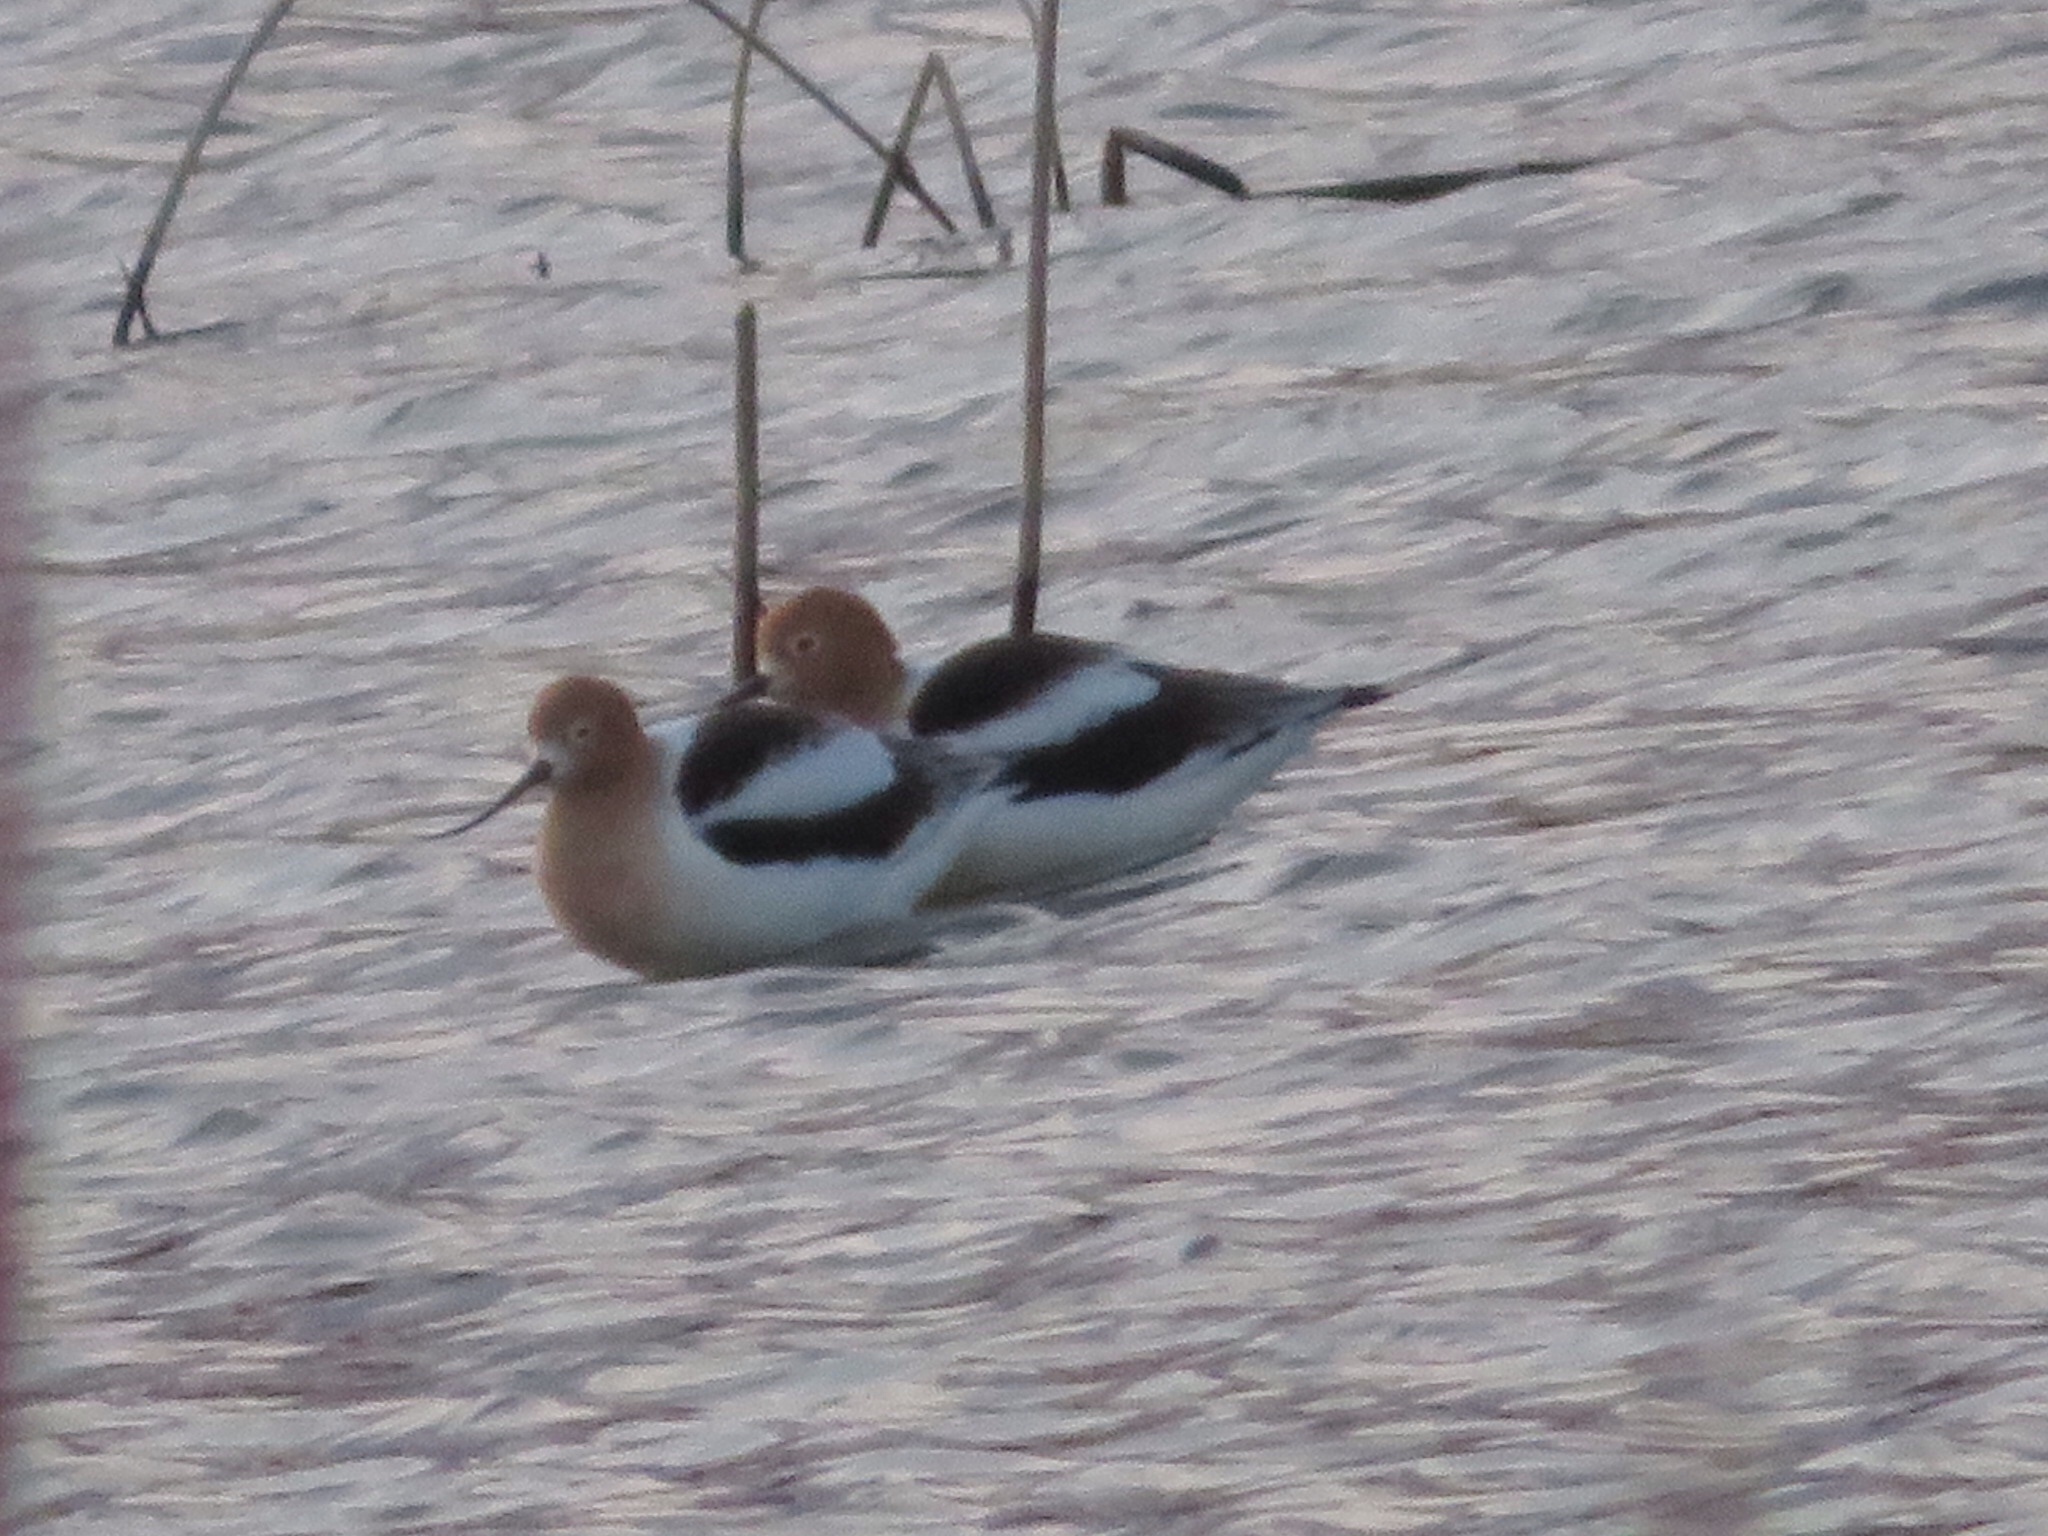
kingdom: Animalia
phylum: Chordata
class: Aves
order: Charadriiformes
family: Recurvirostridae
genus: Recurvirostra
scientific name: Recurvirostra americana
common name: American avocet
